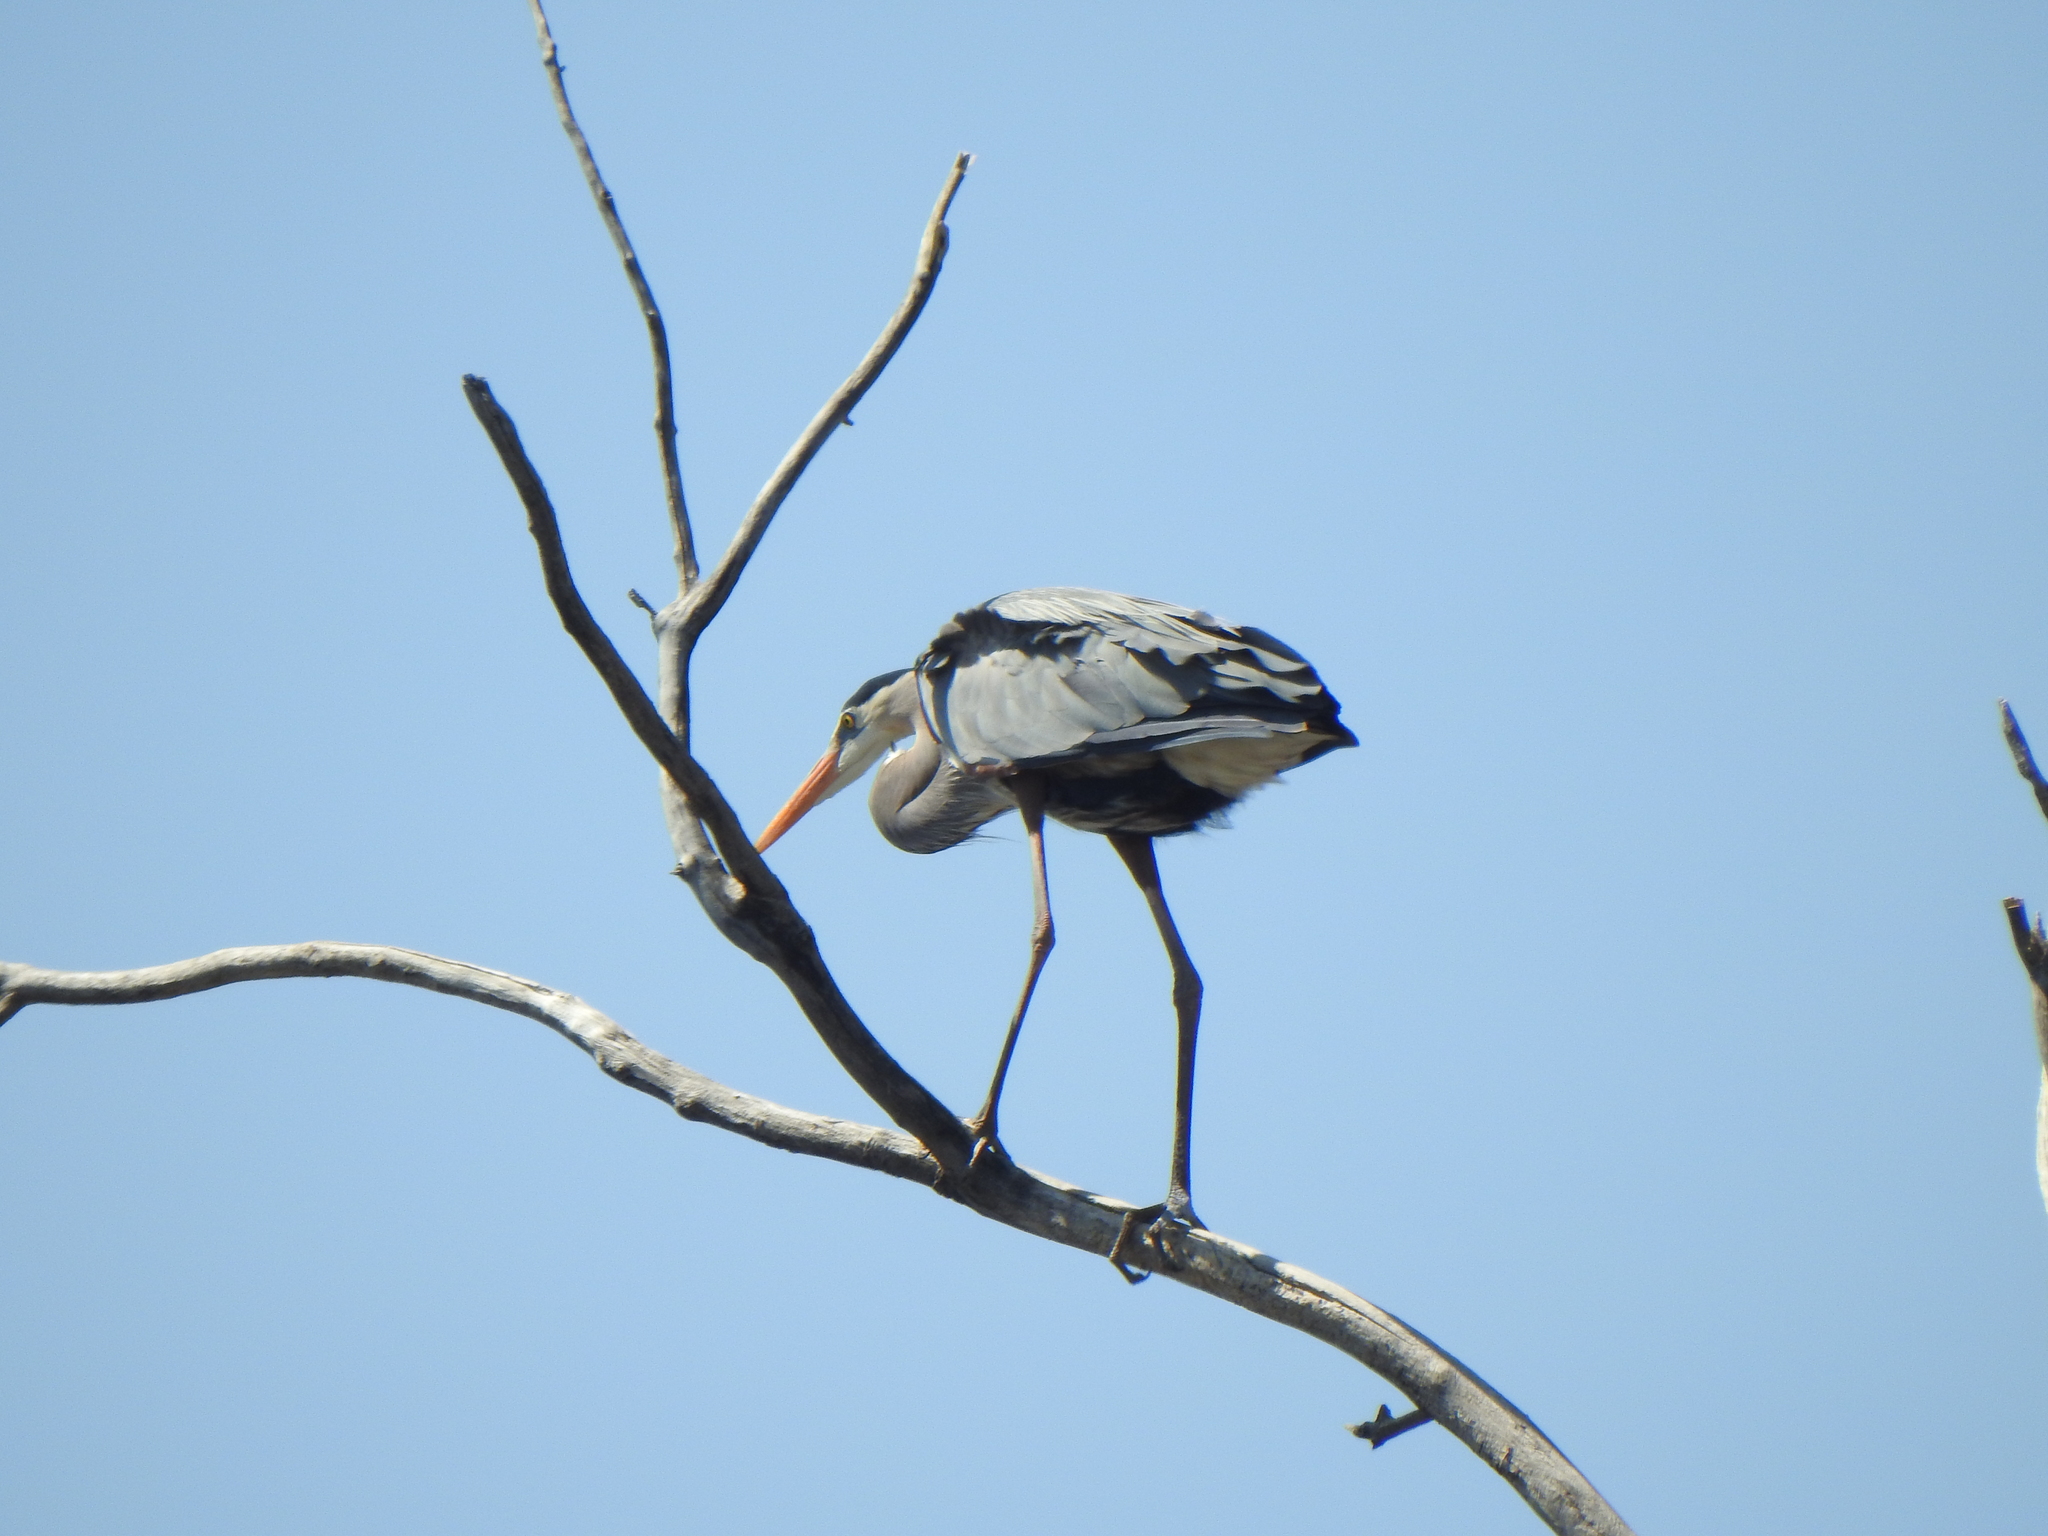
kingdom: Animalia
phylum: Chordata
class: Aves
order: Pelecaniformes
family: Ardeidae
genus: Ardea
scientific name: Ardea herodias
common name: Great blue heron
